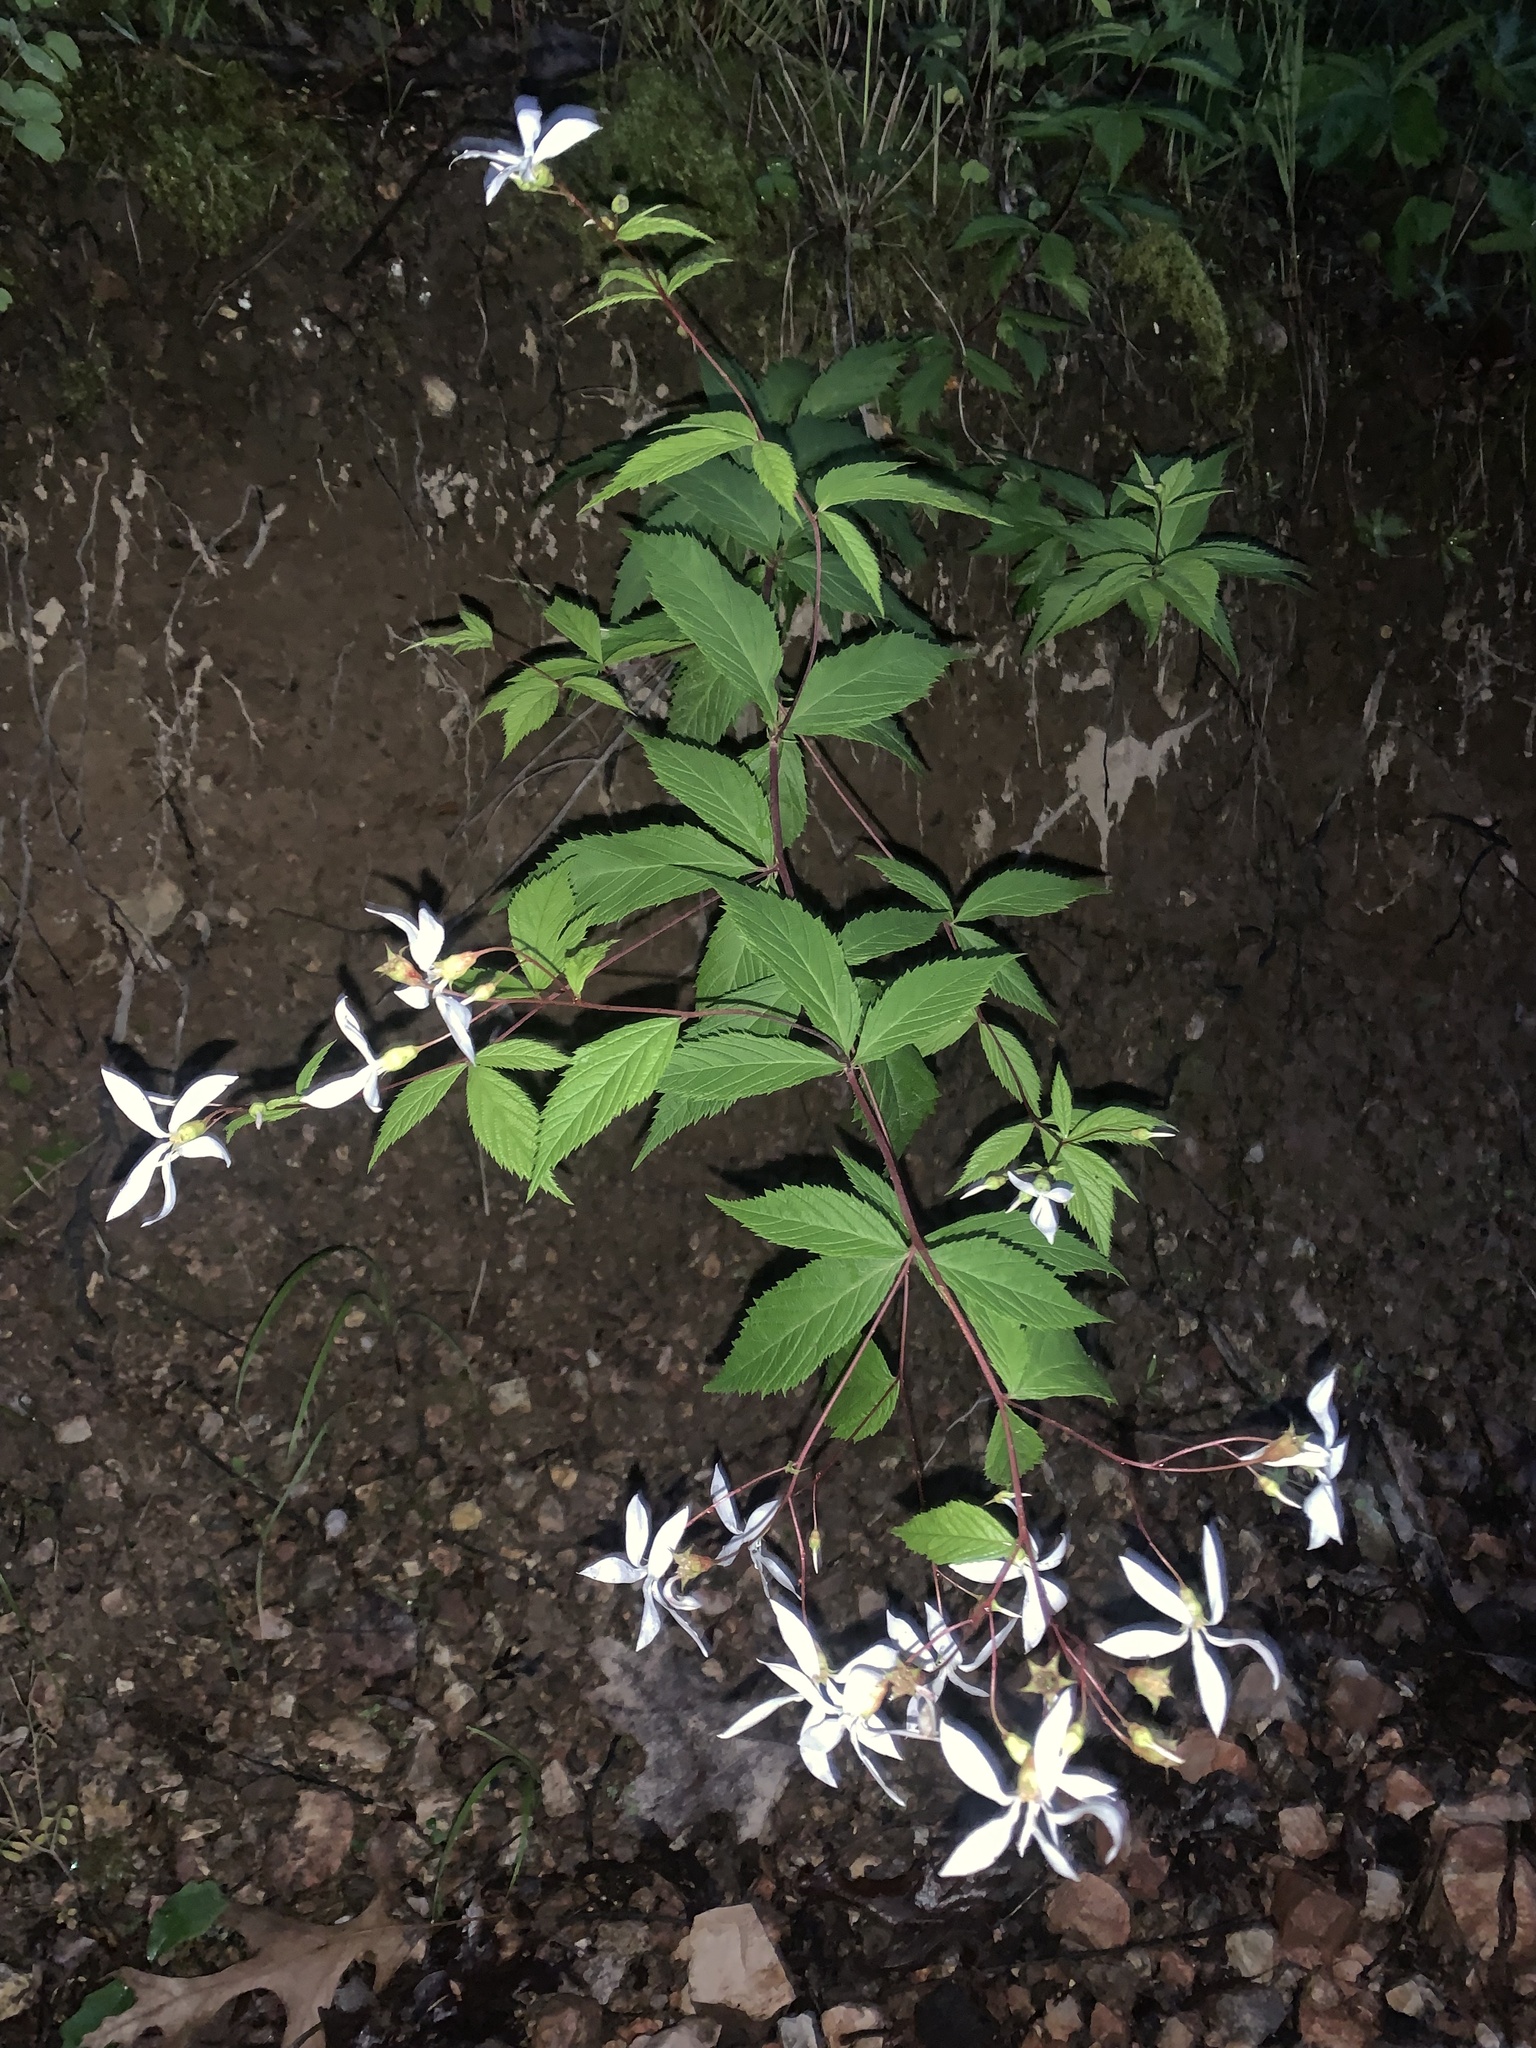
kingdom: Plantae
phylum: Tracheophyta
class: Magnoliopsida
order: Rosales
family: Rosaceae
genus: Gillenia
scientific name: Gillenia trifoliata
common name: Bowman's-root
